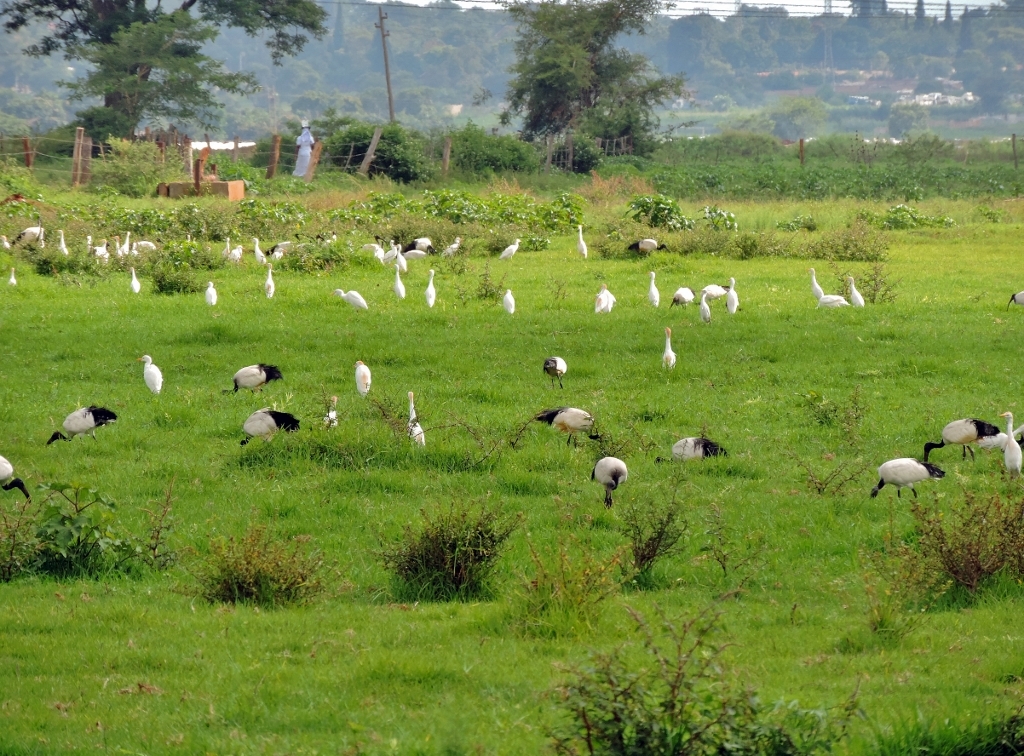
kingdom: Animalia
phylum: Chordata
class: Aves
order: Pelecaniformes
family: Ardeidae
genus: Bubulcus
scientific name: Bubulcus ibis
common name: Cattle egret
